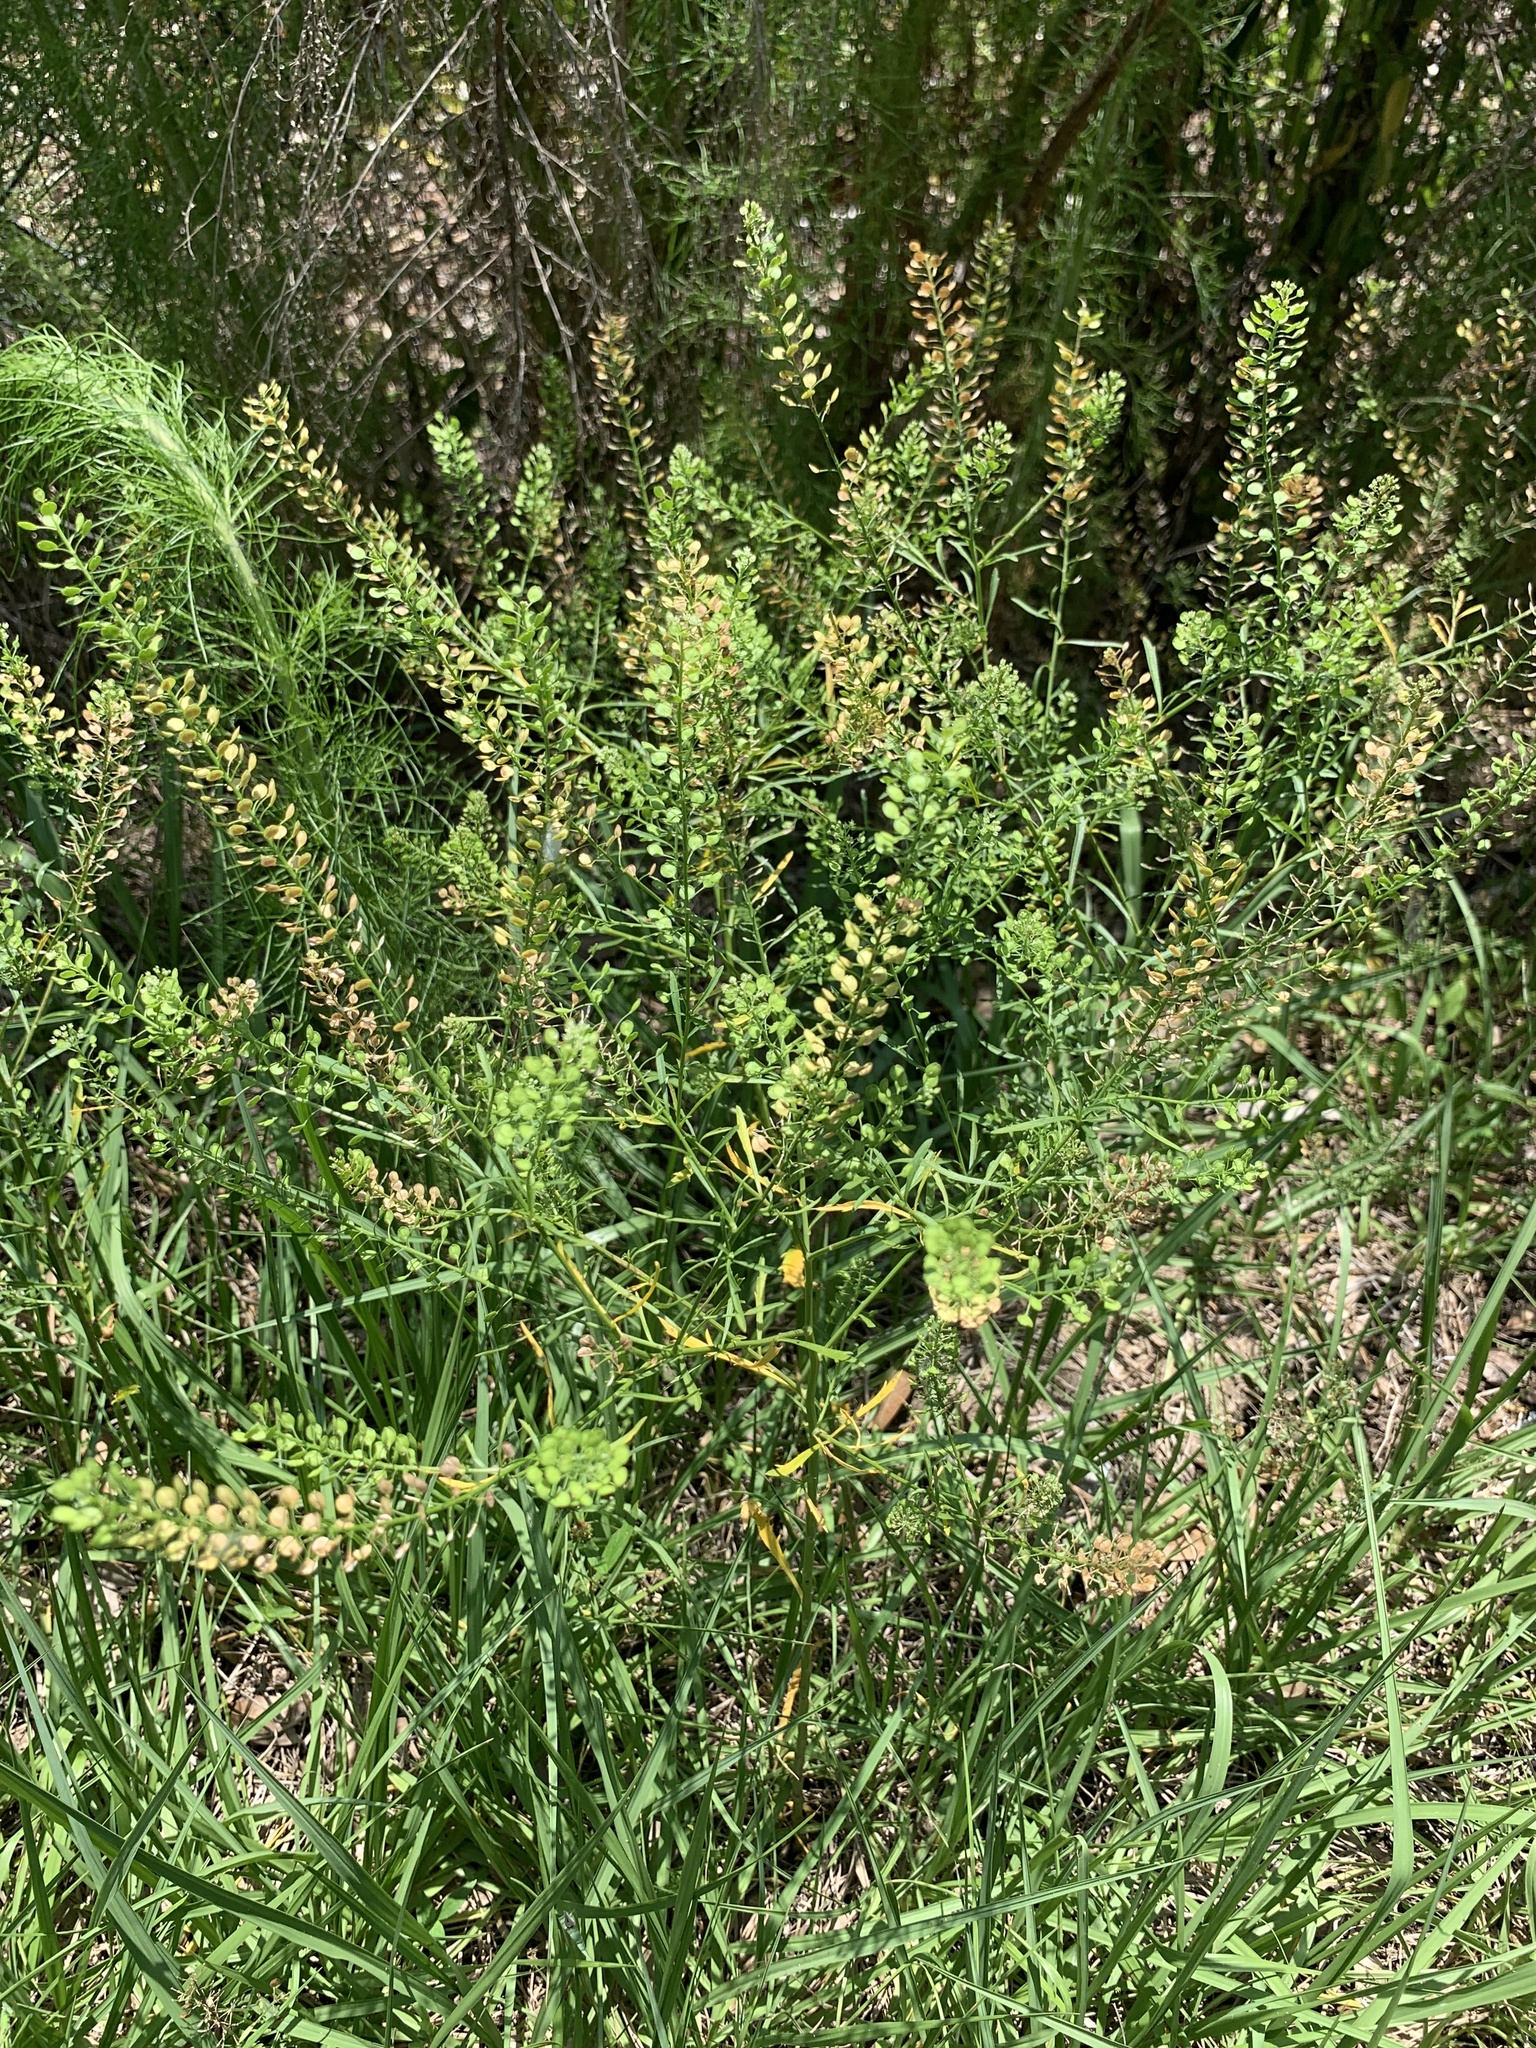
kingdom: Plantae
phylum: Tracheophyta
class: Magnoliopsida
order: Brassicales
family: Brassicaceae
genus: Lepidium
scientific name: Lepidium virginicum
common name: Least pepperwort
